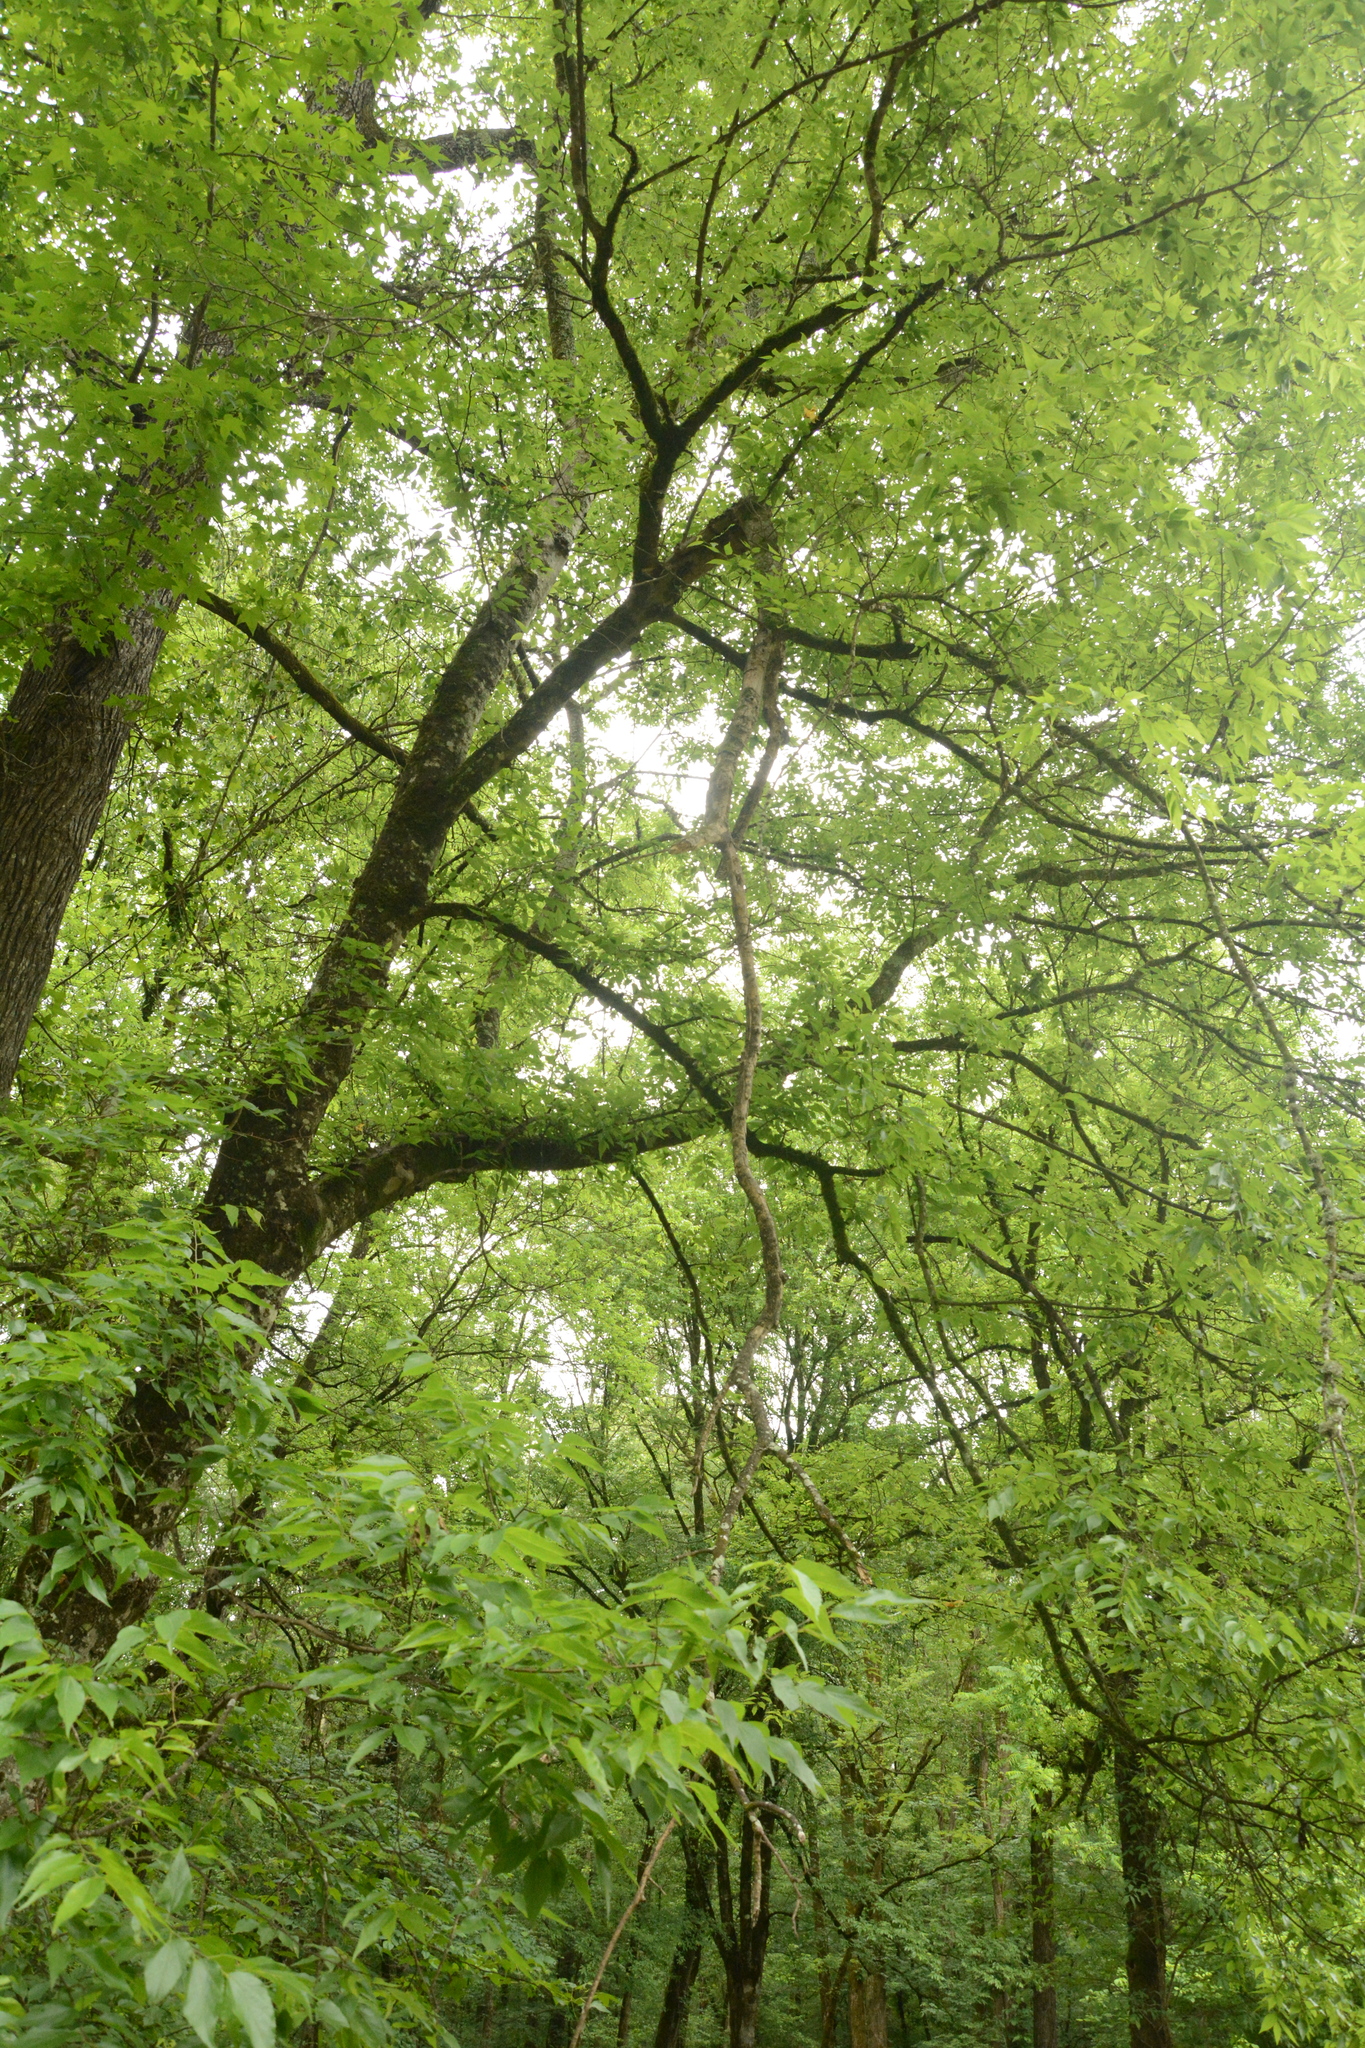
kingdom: Plantae
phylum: Tracheophyta
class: Magnoliopsida
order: Rosales
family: Cannabaceae
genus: Celtis
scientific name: Celtis laevigata
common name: Sugarberry
